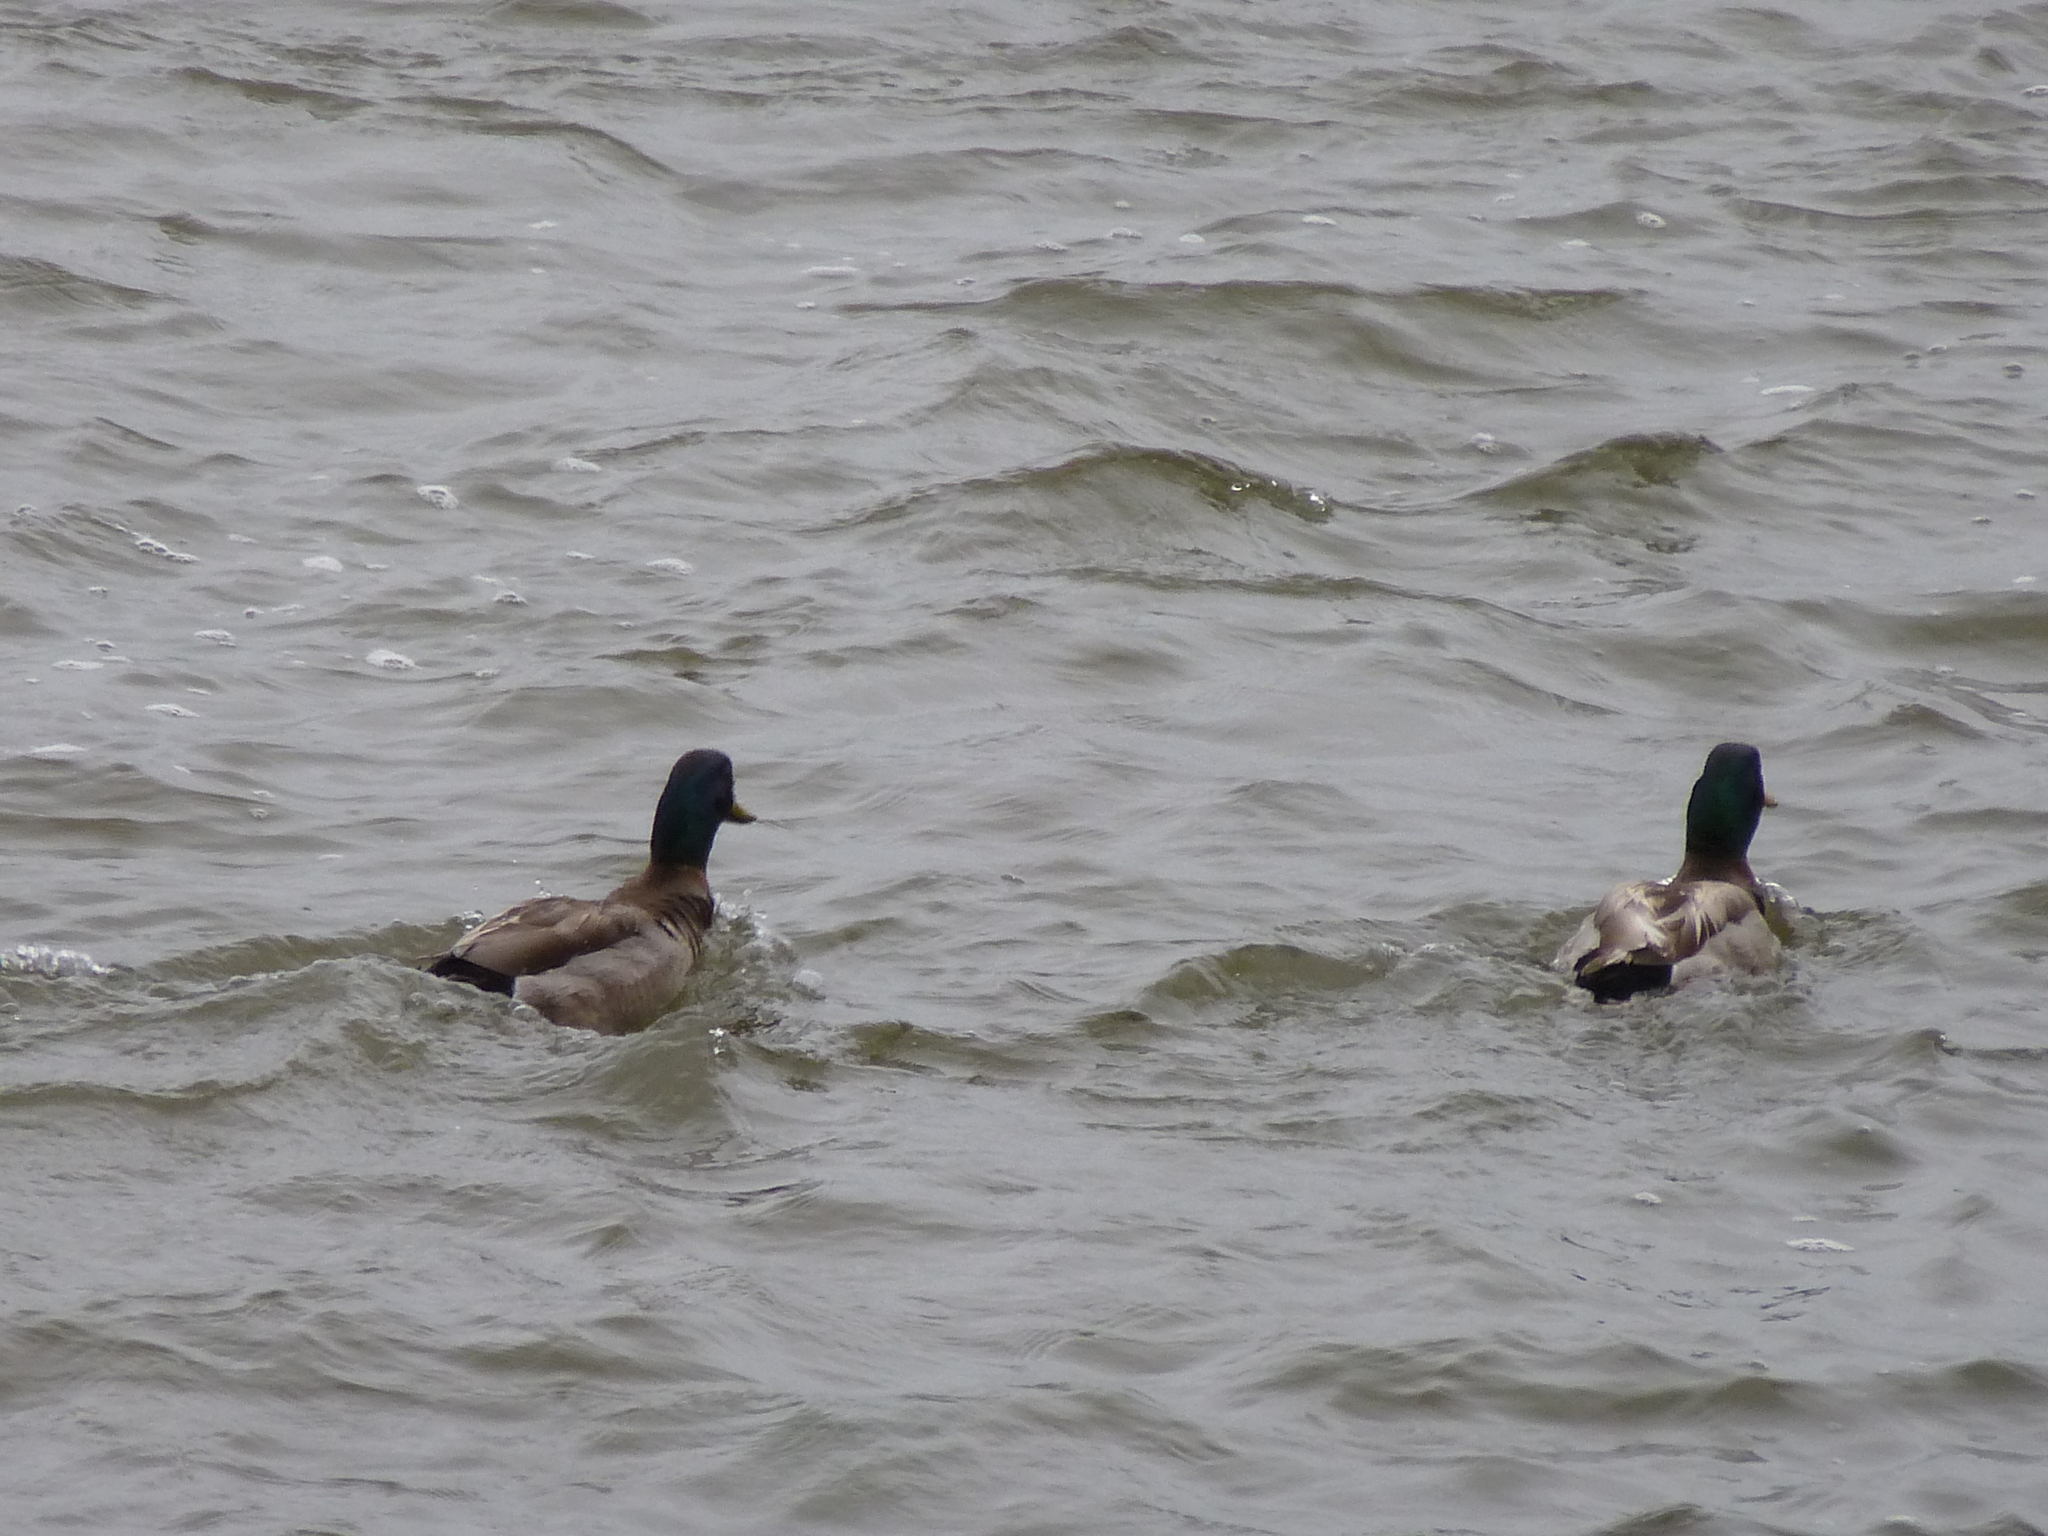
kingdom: Animalia
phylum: Chordata
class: Aves
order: Anseriformes
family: Anatidae
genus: Anas
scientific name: Anas platyrhynchos
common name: Mallard
